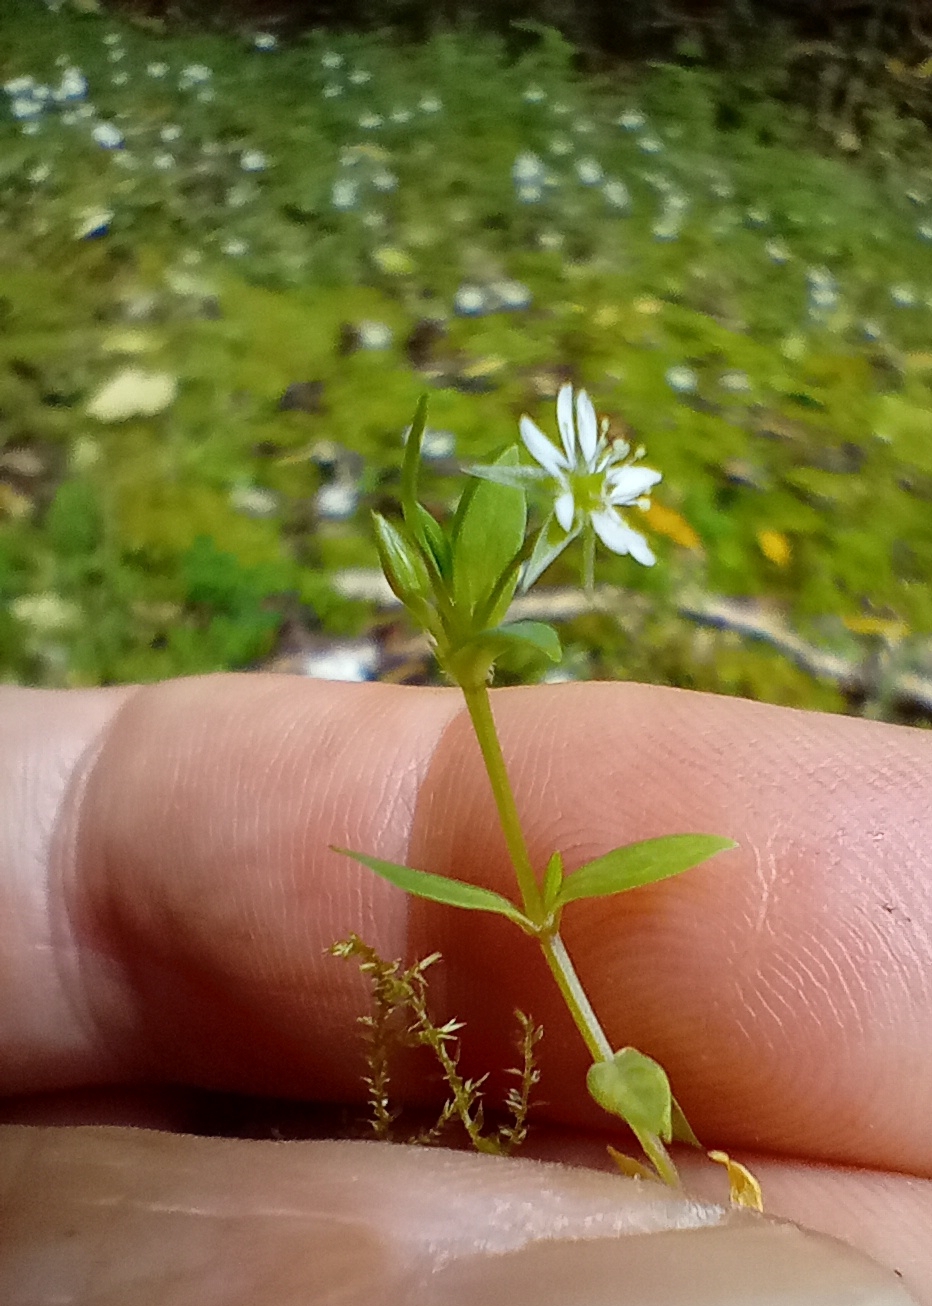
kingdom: Plantae
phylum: Tracheophyta
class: Magnoliopsida
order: Caryophyllales
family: Caryophyllaceae
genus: Stellaria
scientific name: Stellaria alsine
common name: Bog stitchwort
